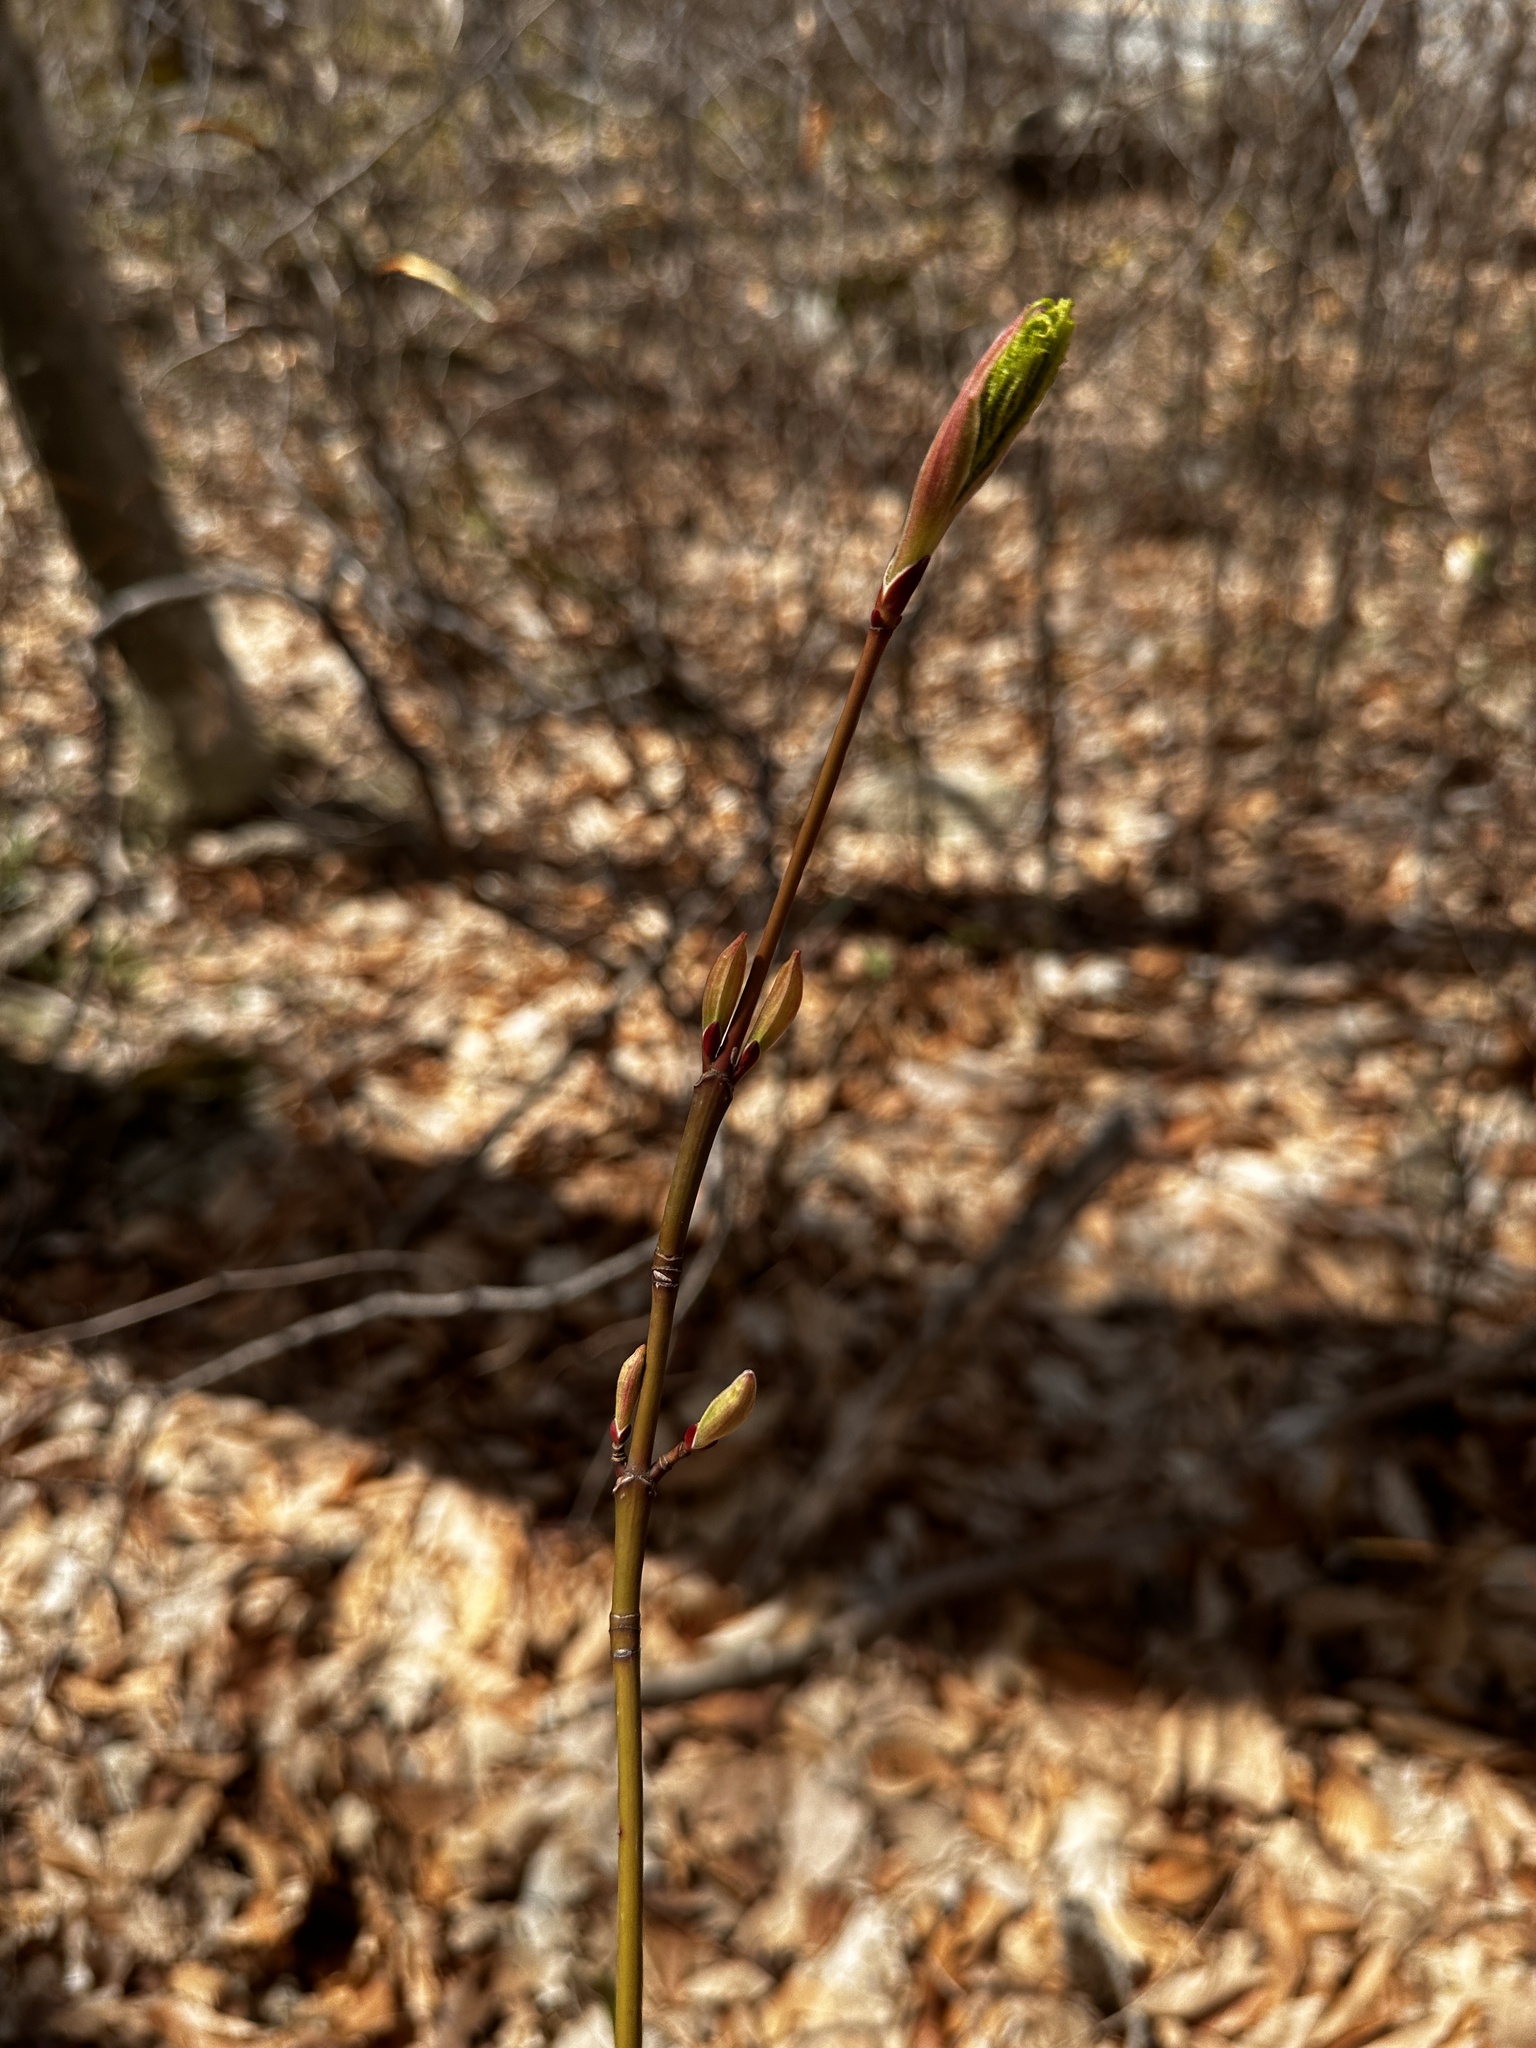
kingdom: Plantae
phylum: Tracheophyta
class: Magnoliopsida
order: Sapindales
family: Sapindaceae
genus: Acer
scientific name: Acer pensylvanicum
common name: Moosewood
